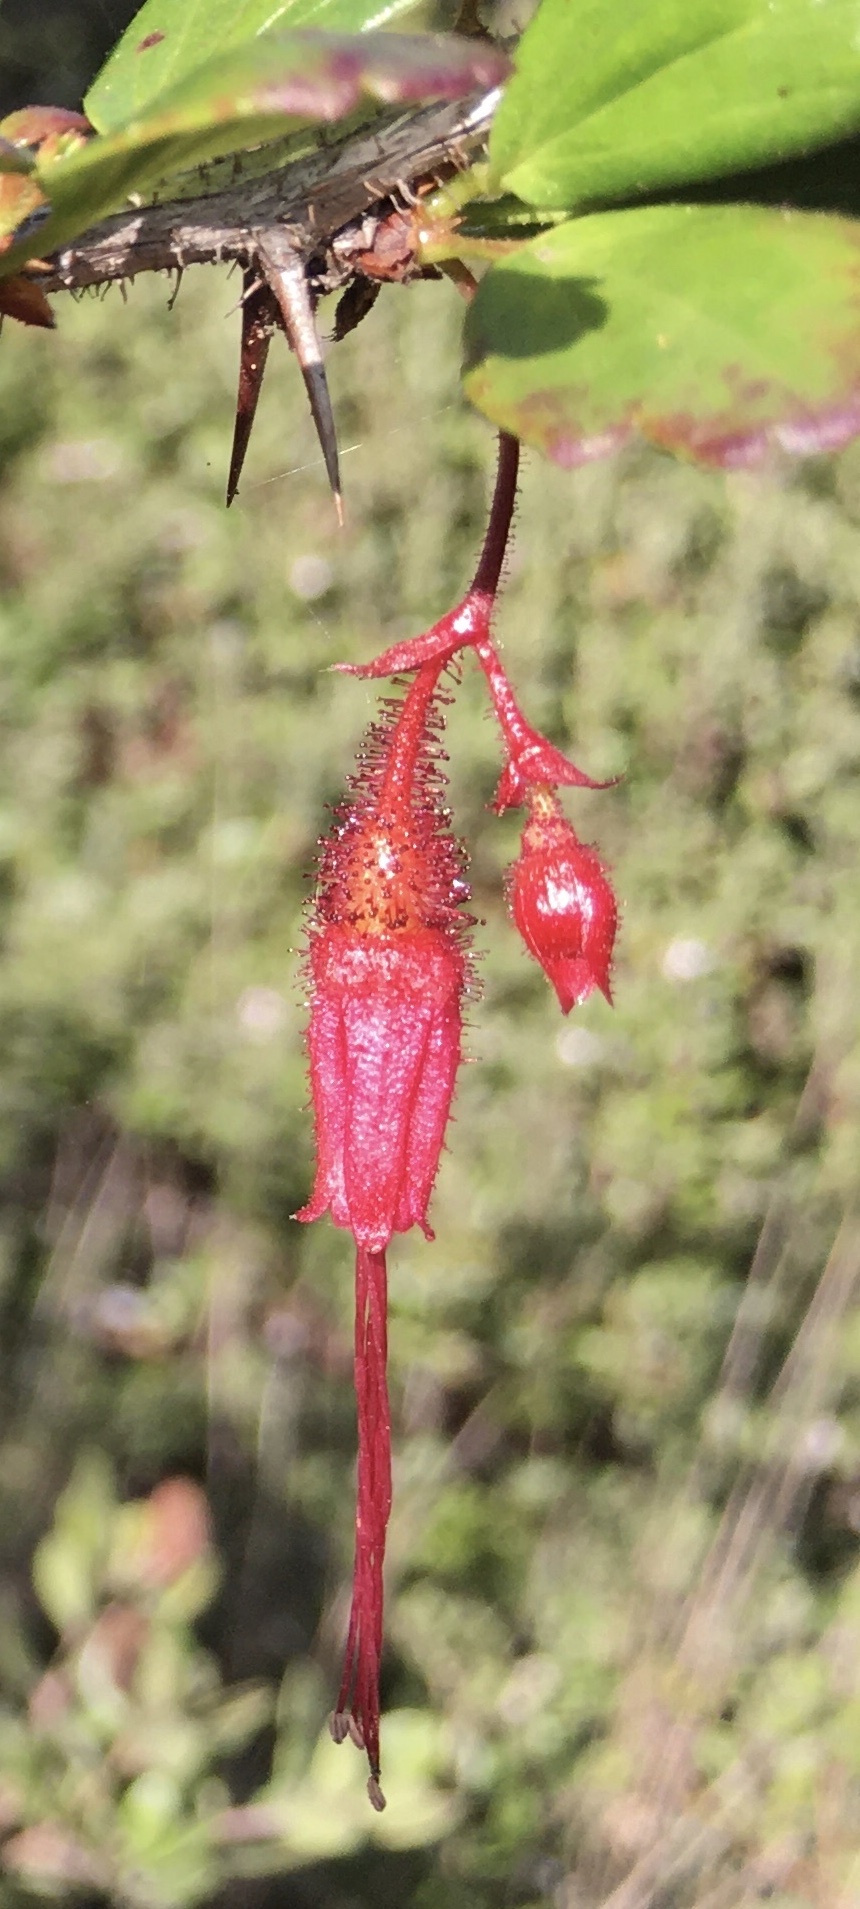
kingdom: Plantae
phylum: Tracheophyta
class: Magnoliopsida
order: Saxifragales
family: Grossulariaceae
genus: Ribes
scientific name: Ribes speciosum
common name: Fuchsia-flower gooseberry
